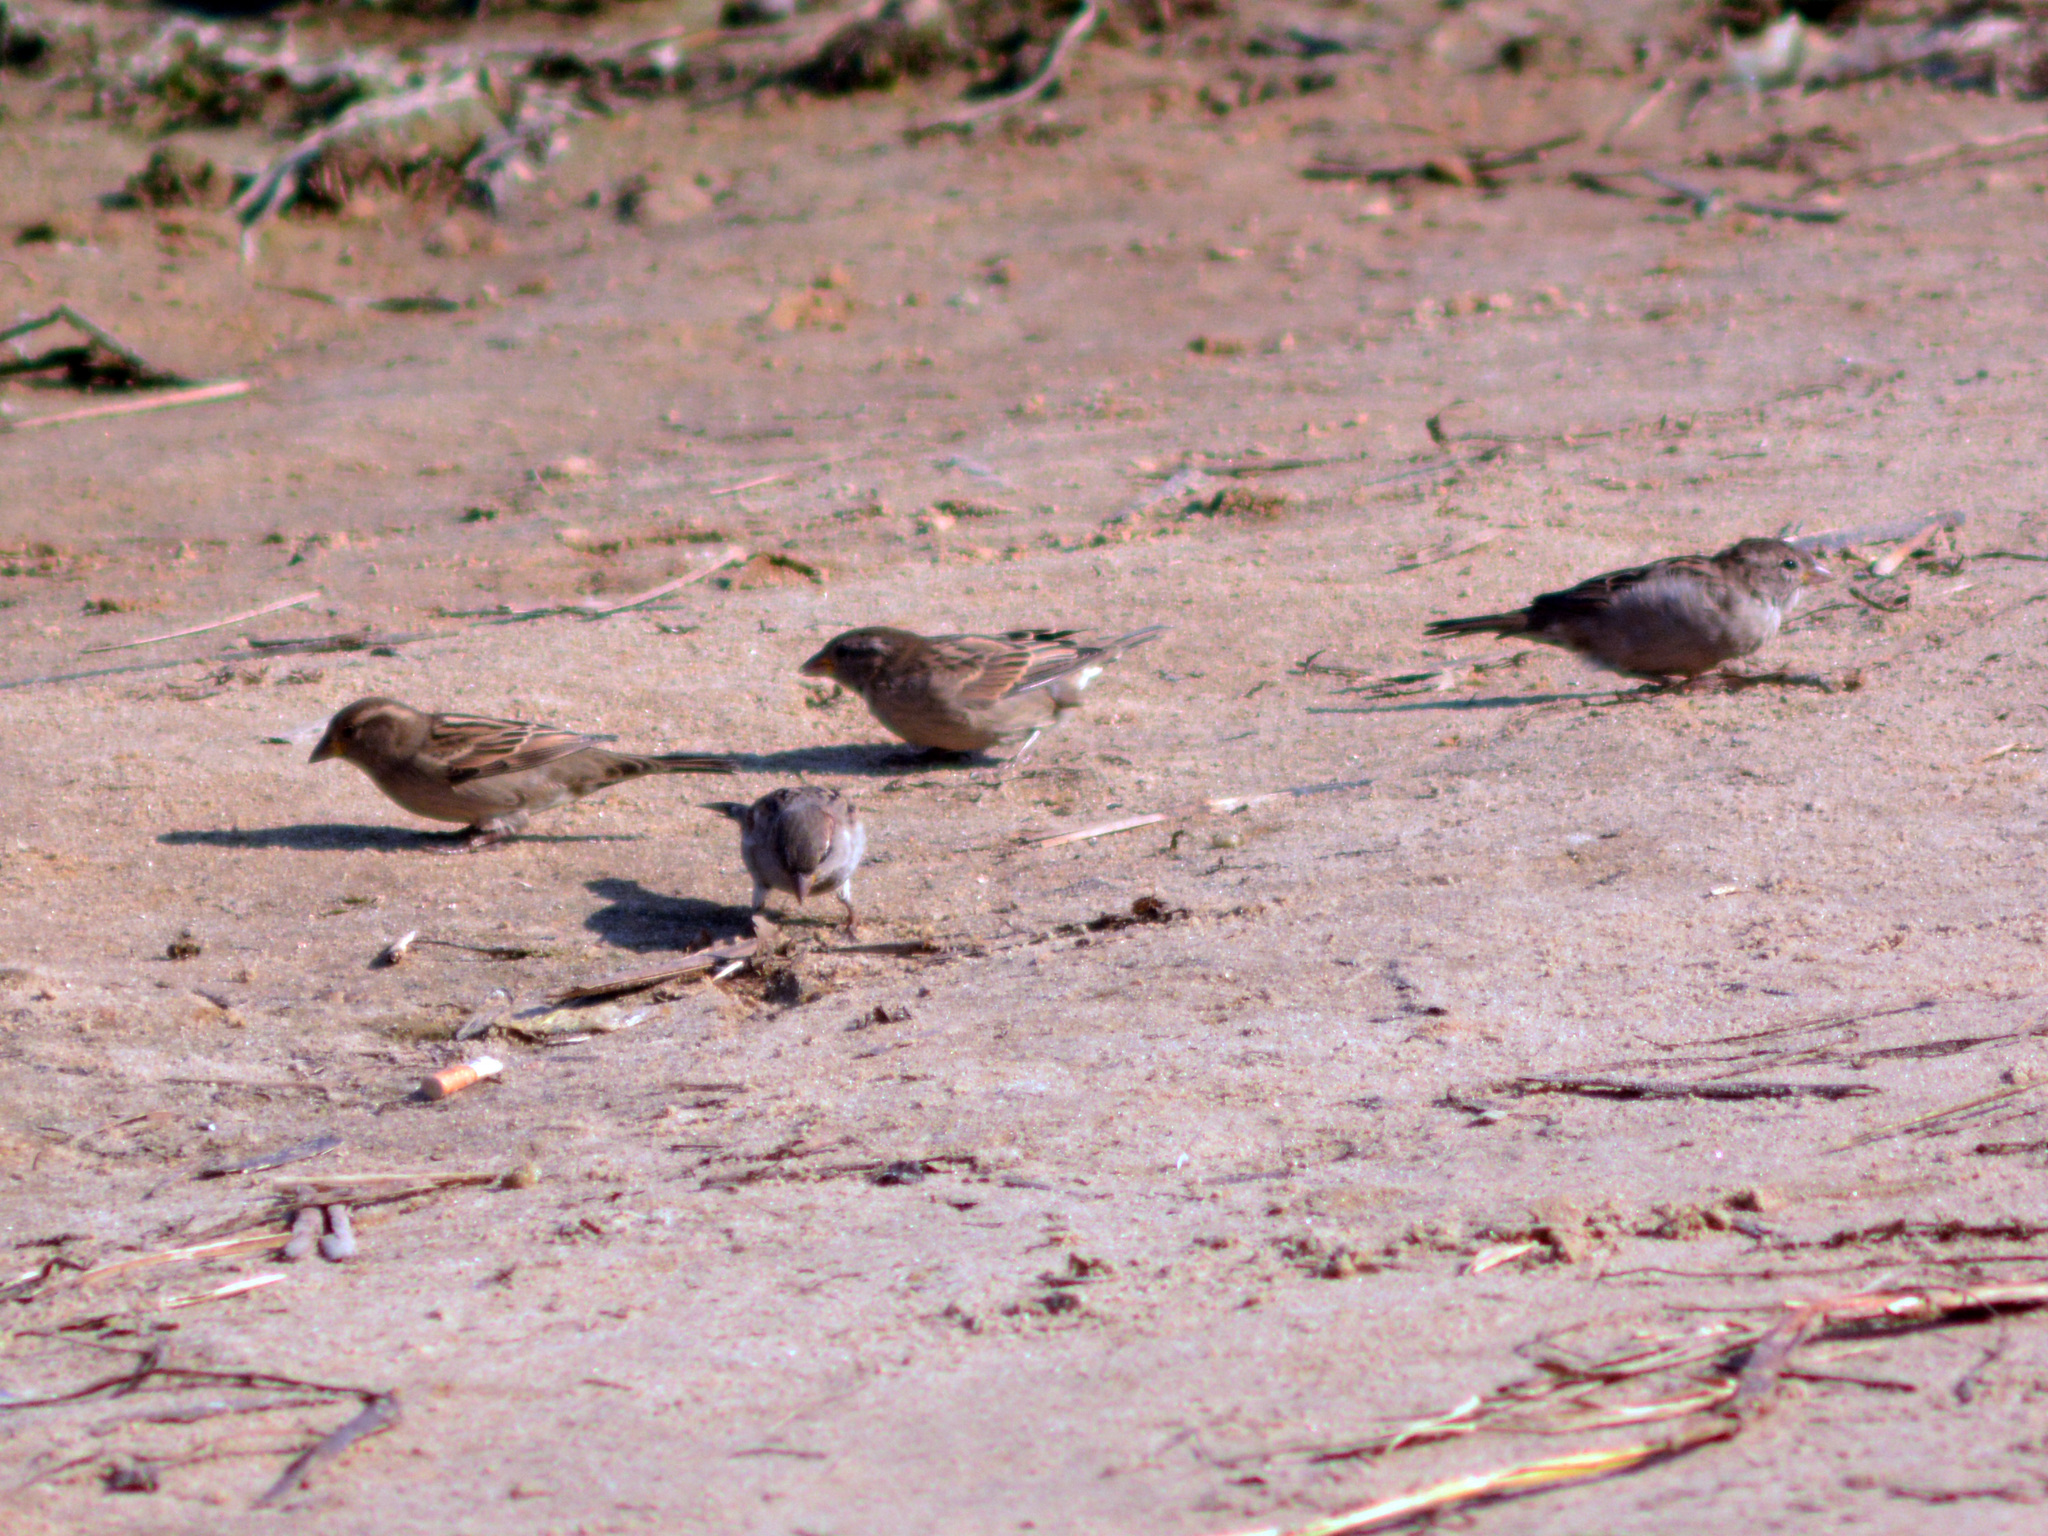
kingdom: Animalia
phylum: Chordata
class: Aves
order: Passeriformes
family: Passeridae
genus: Passer
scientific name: Passer domesticus
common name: House sparrow
